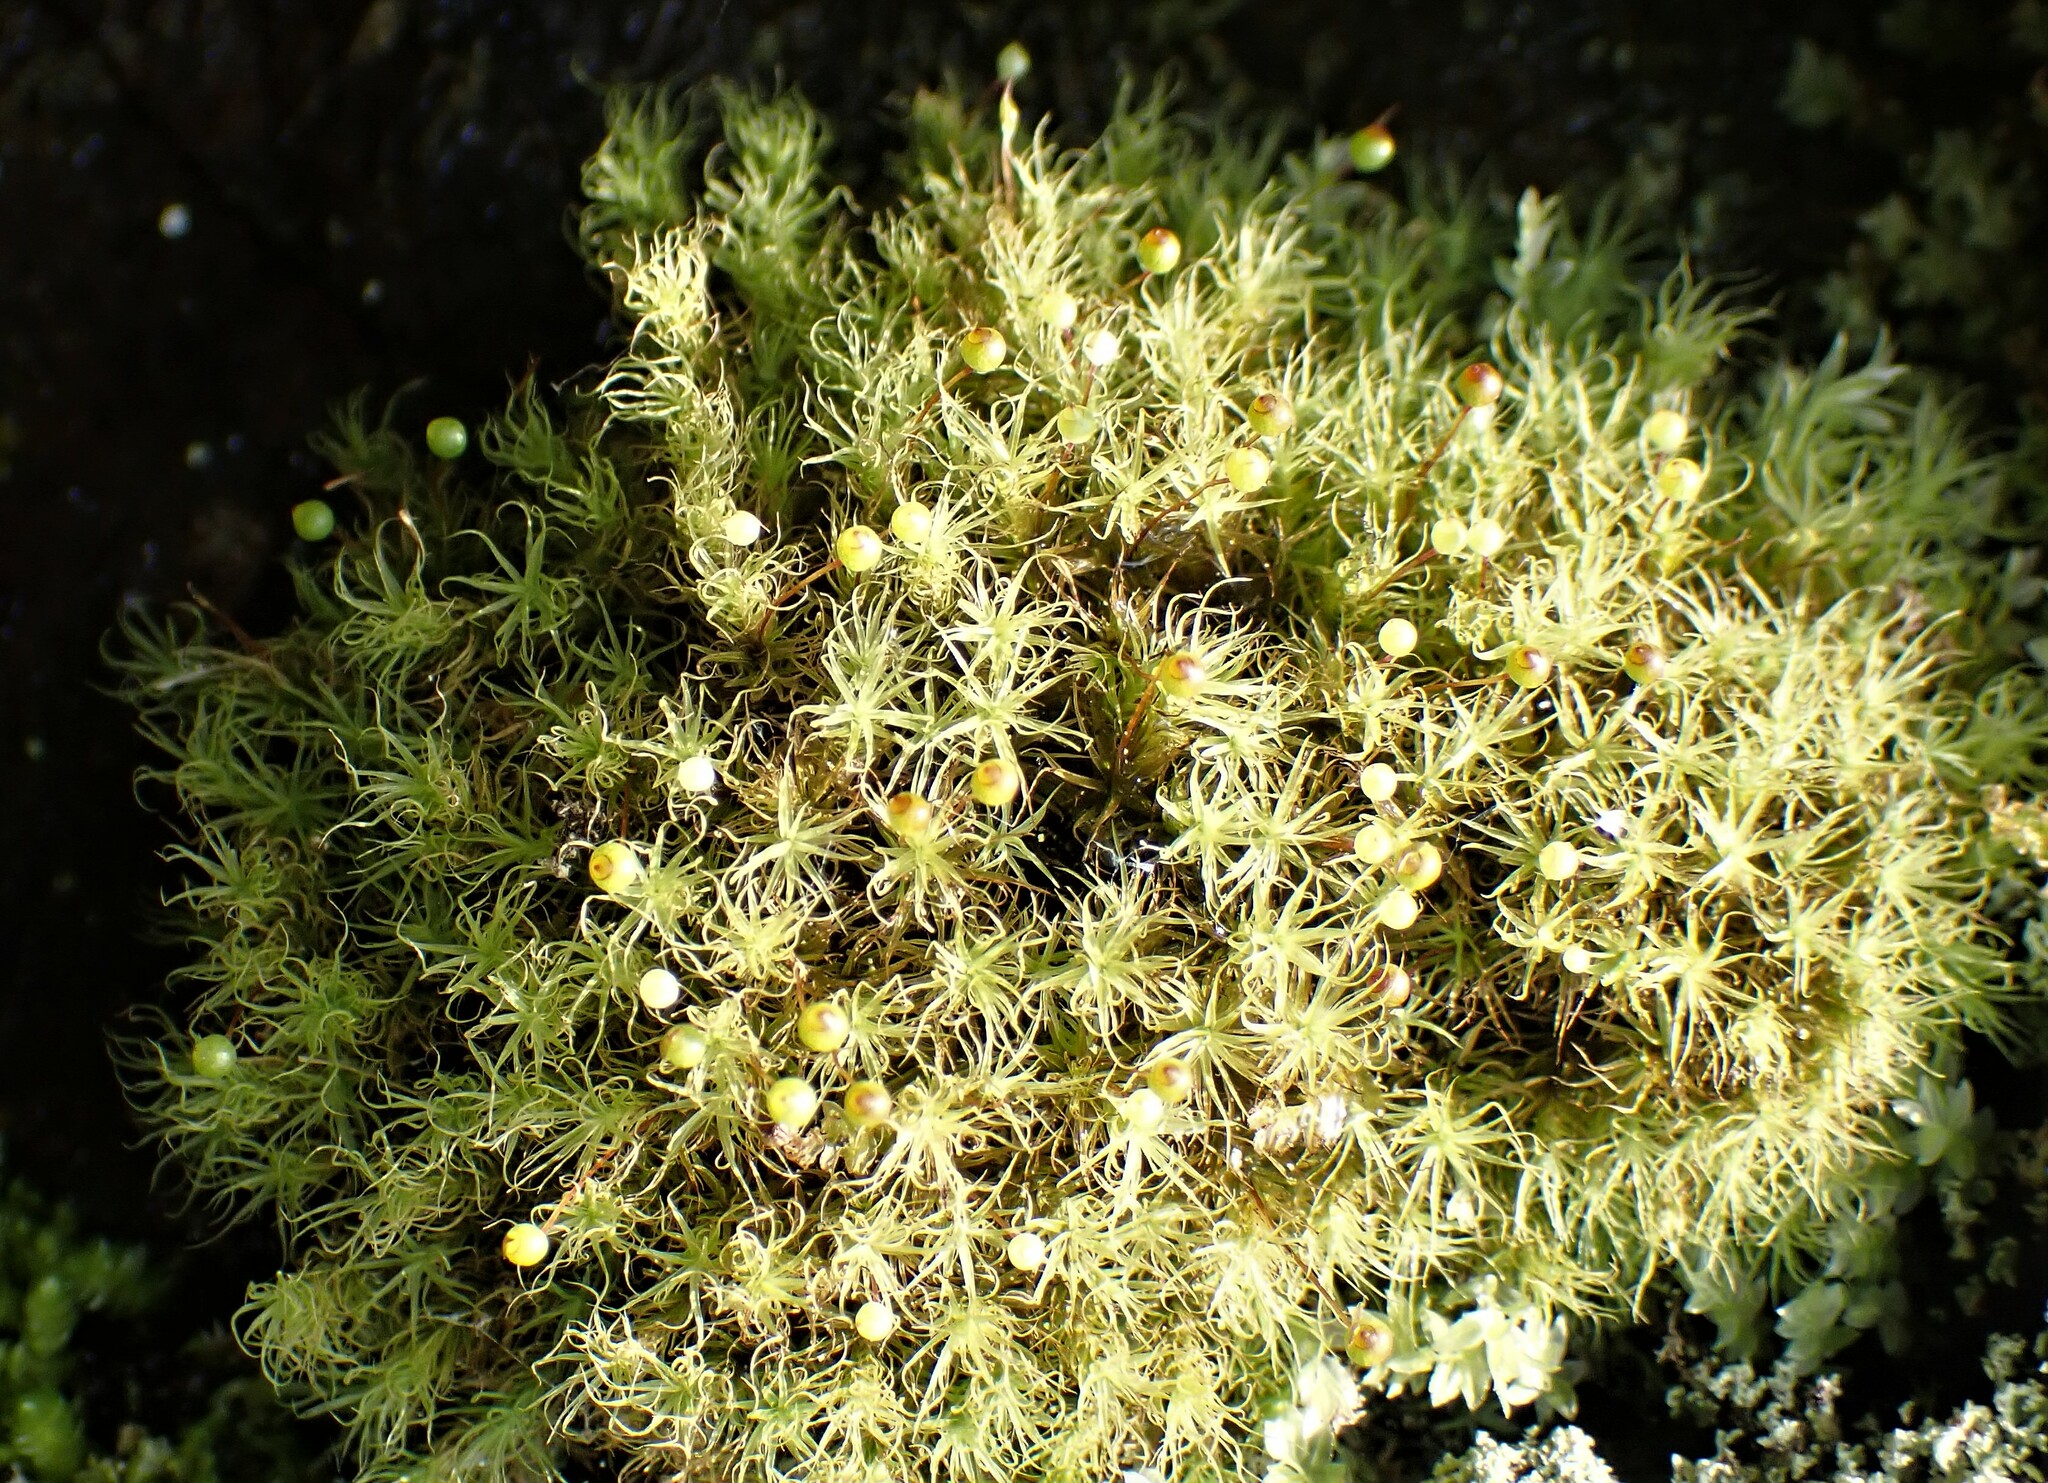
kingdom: Plantae
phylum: Bryophyta
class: Bryopsida
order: Bartramiales
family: Bartramiaceae
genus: Bartramia
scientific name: Bartramia ithyphylla
